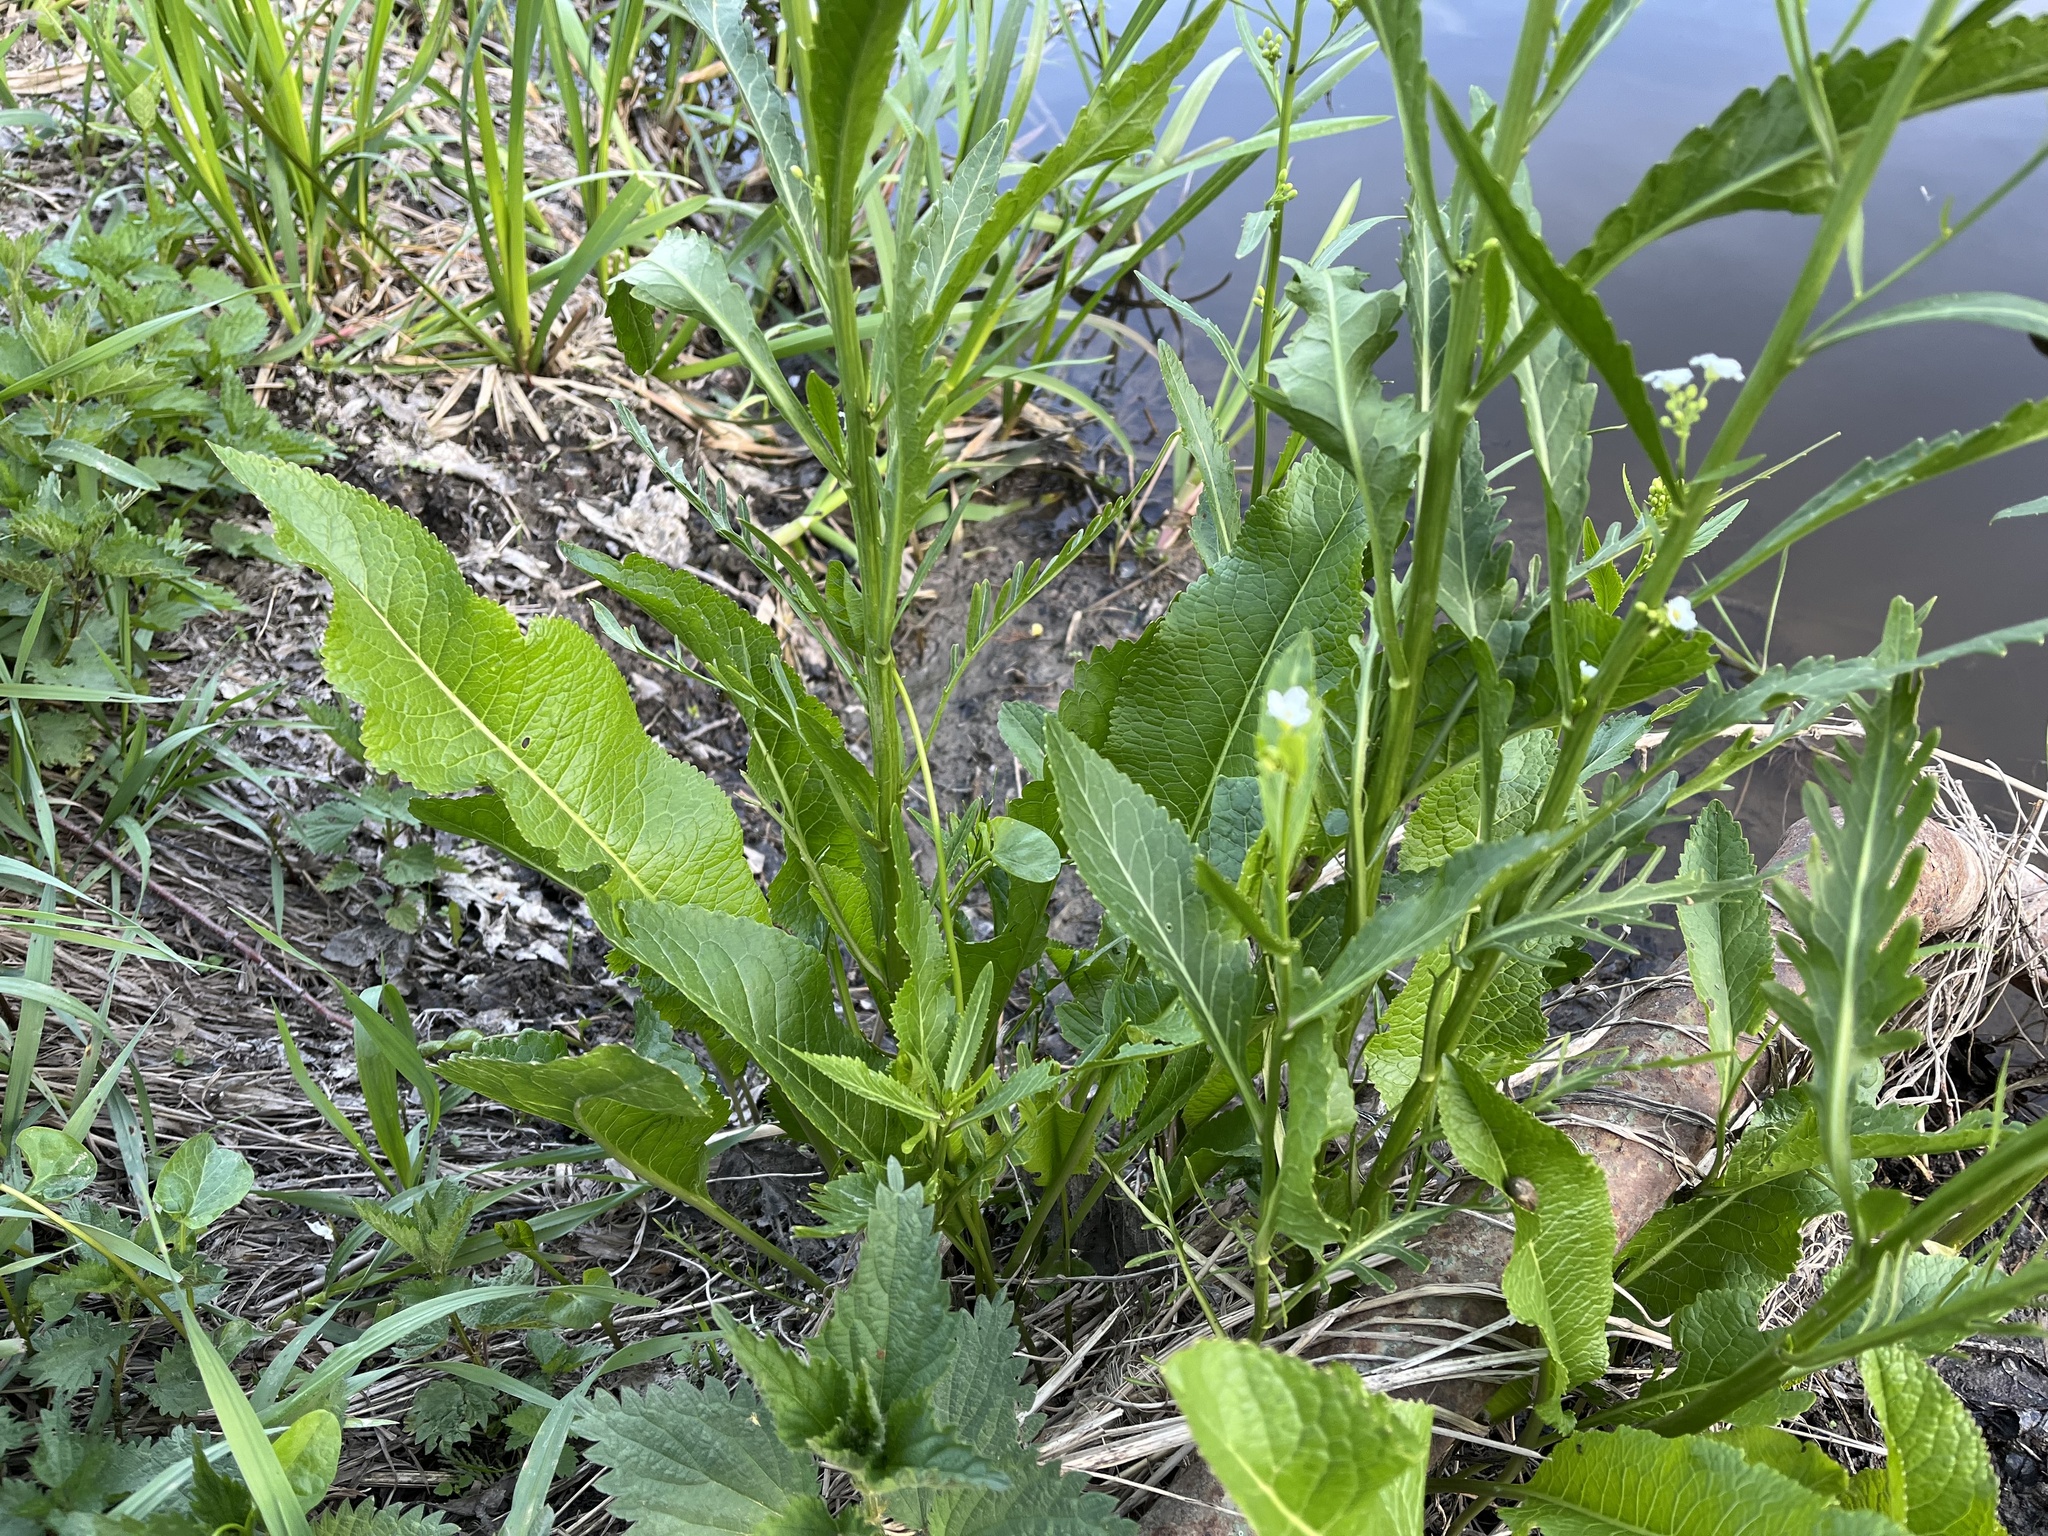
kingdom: Plantae
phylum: Tracheophyta
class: Magnoliopsida
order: Brassicales
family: Brassicaceae
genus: Armoracia
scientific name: Armoracia rusticana
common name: Horseradish
